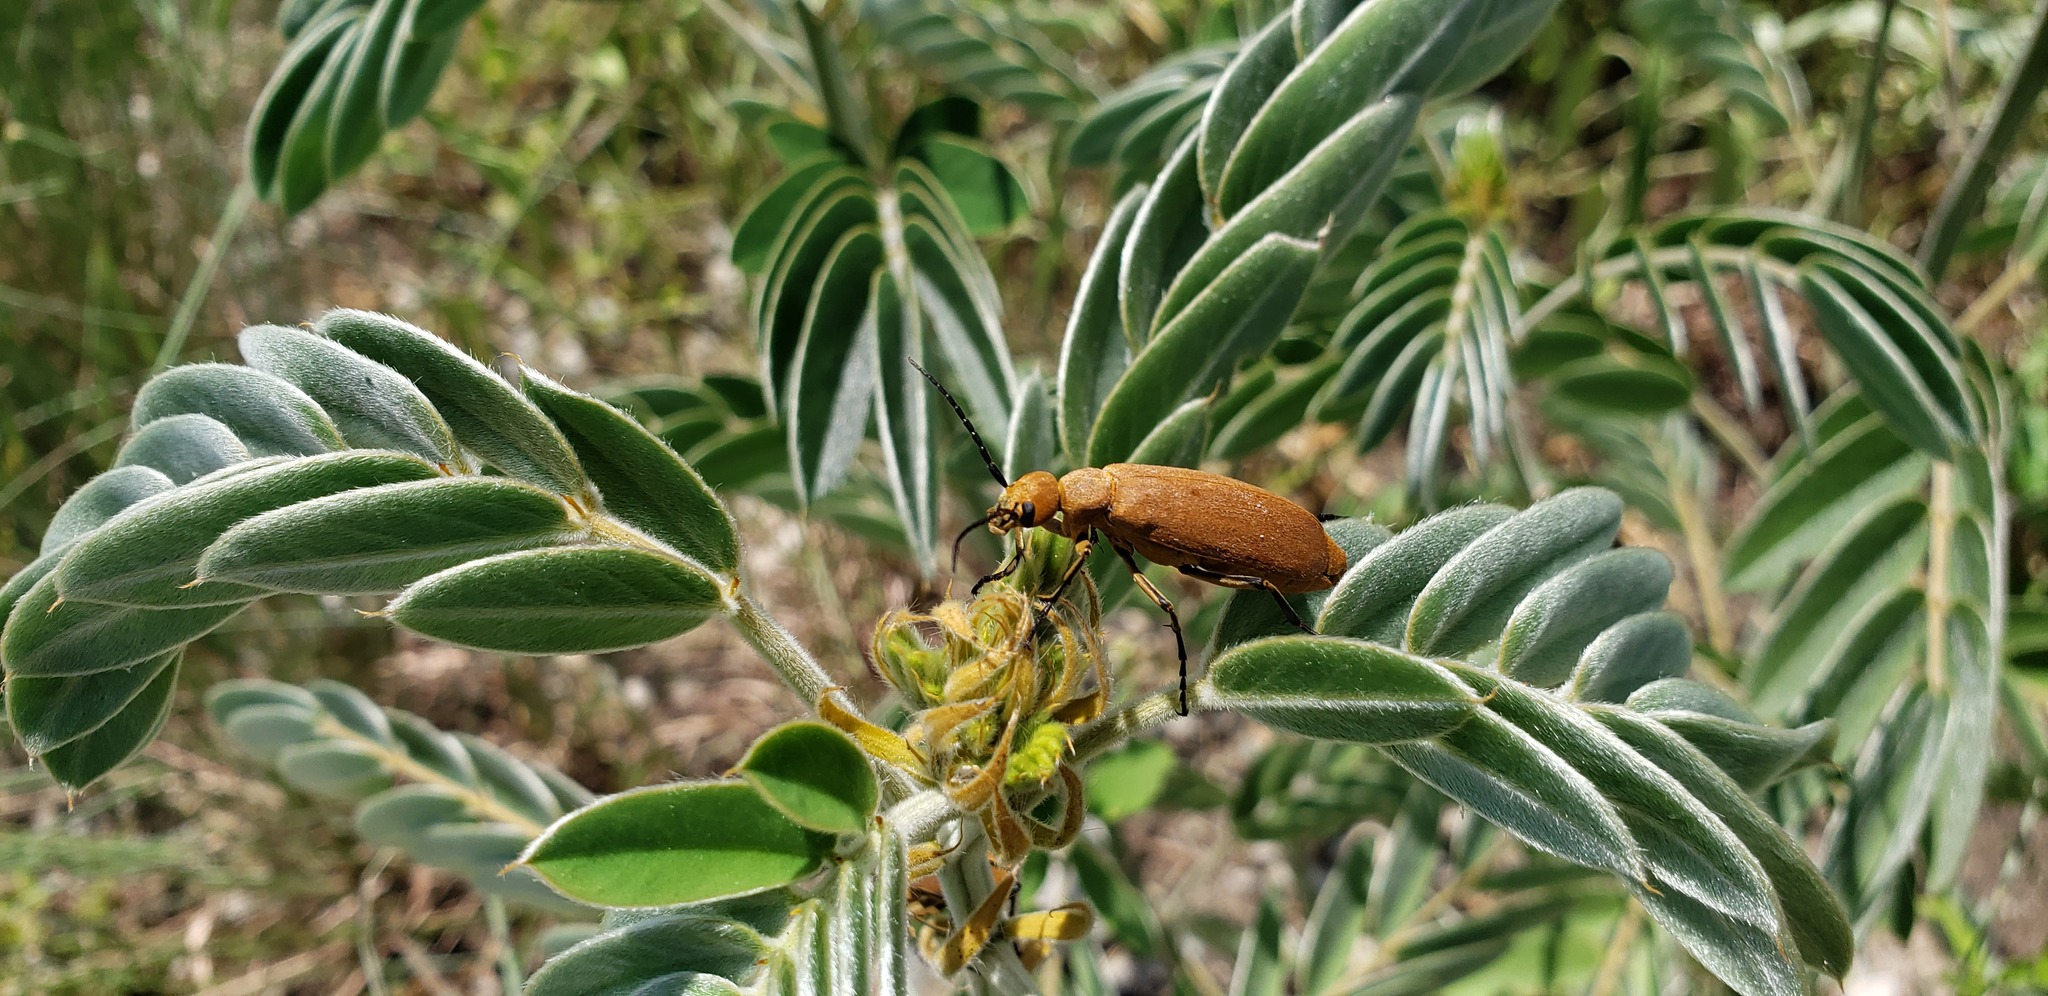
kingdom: Animalia
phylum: Arthropoda
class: Insecta
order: Coleoptera
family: Meloidae
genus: Epicauta
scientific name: Epicauta immaculata
